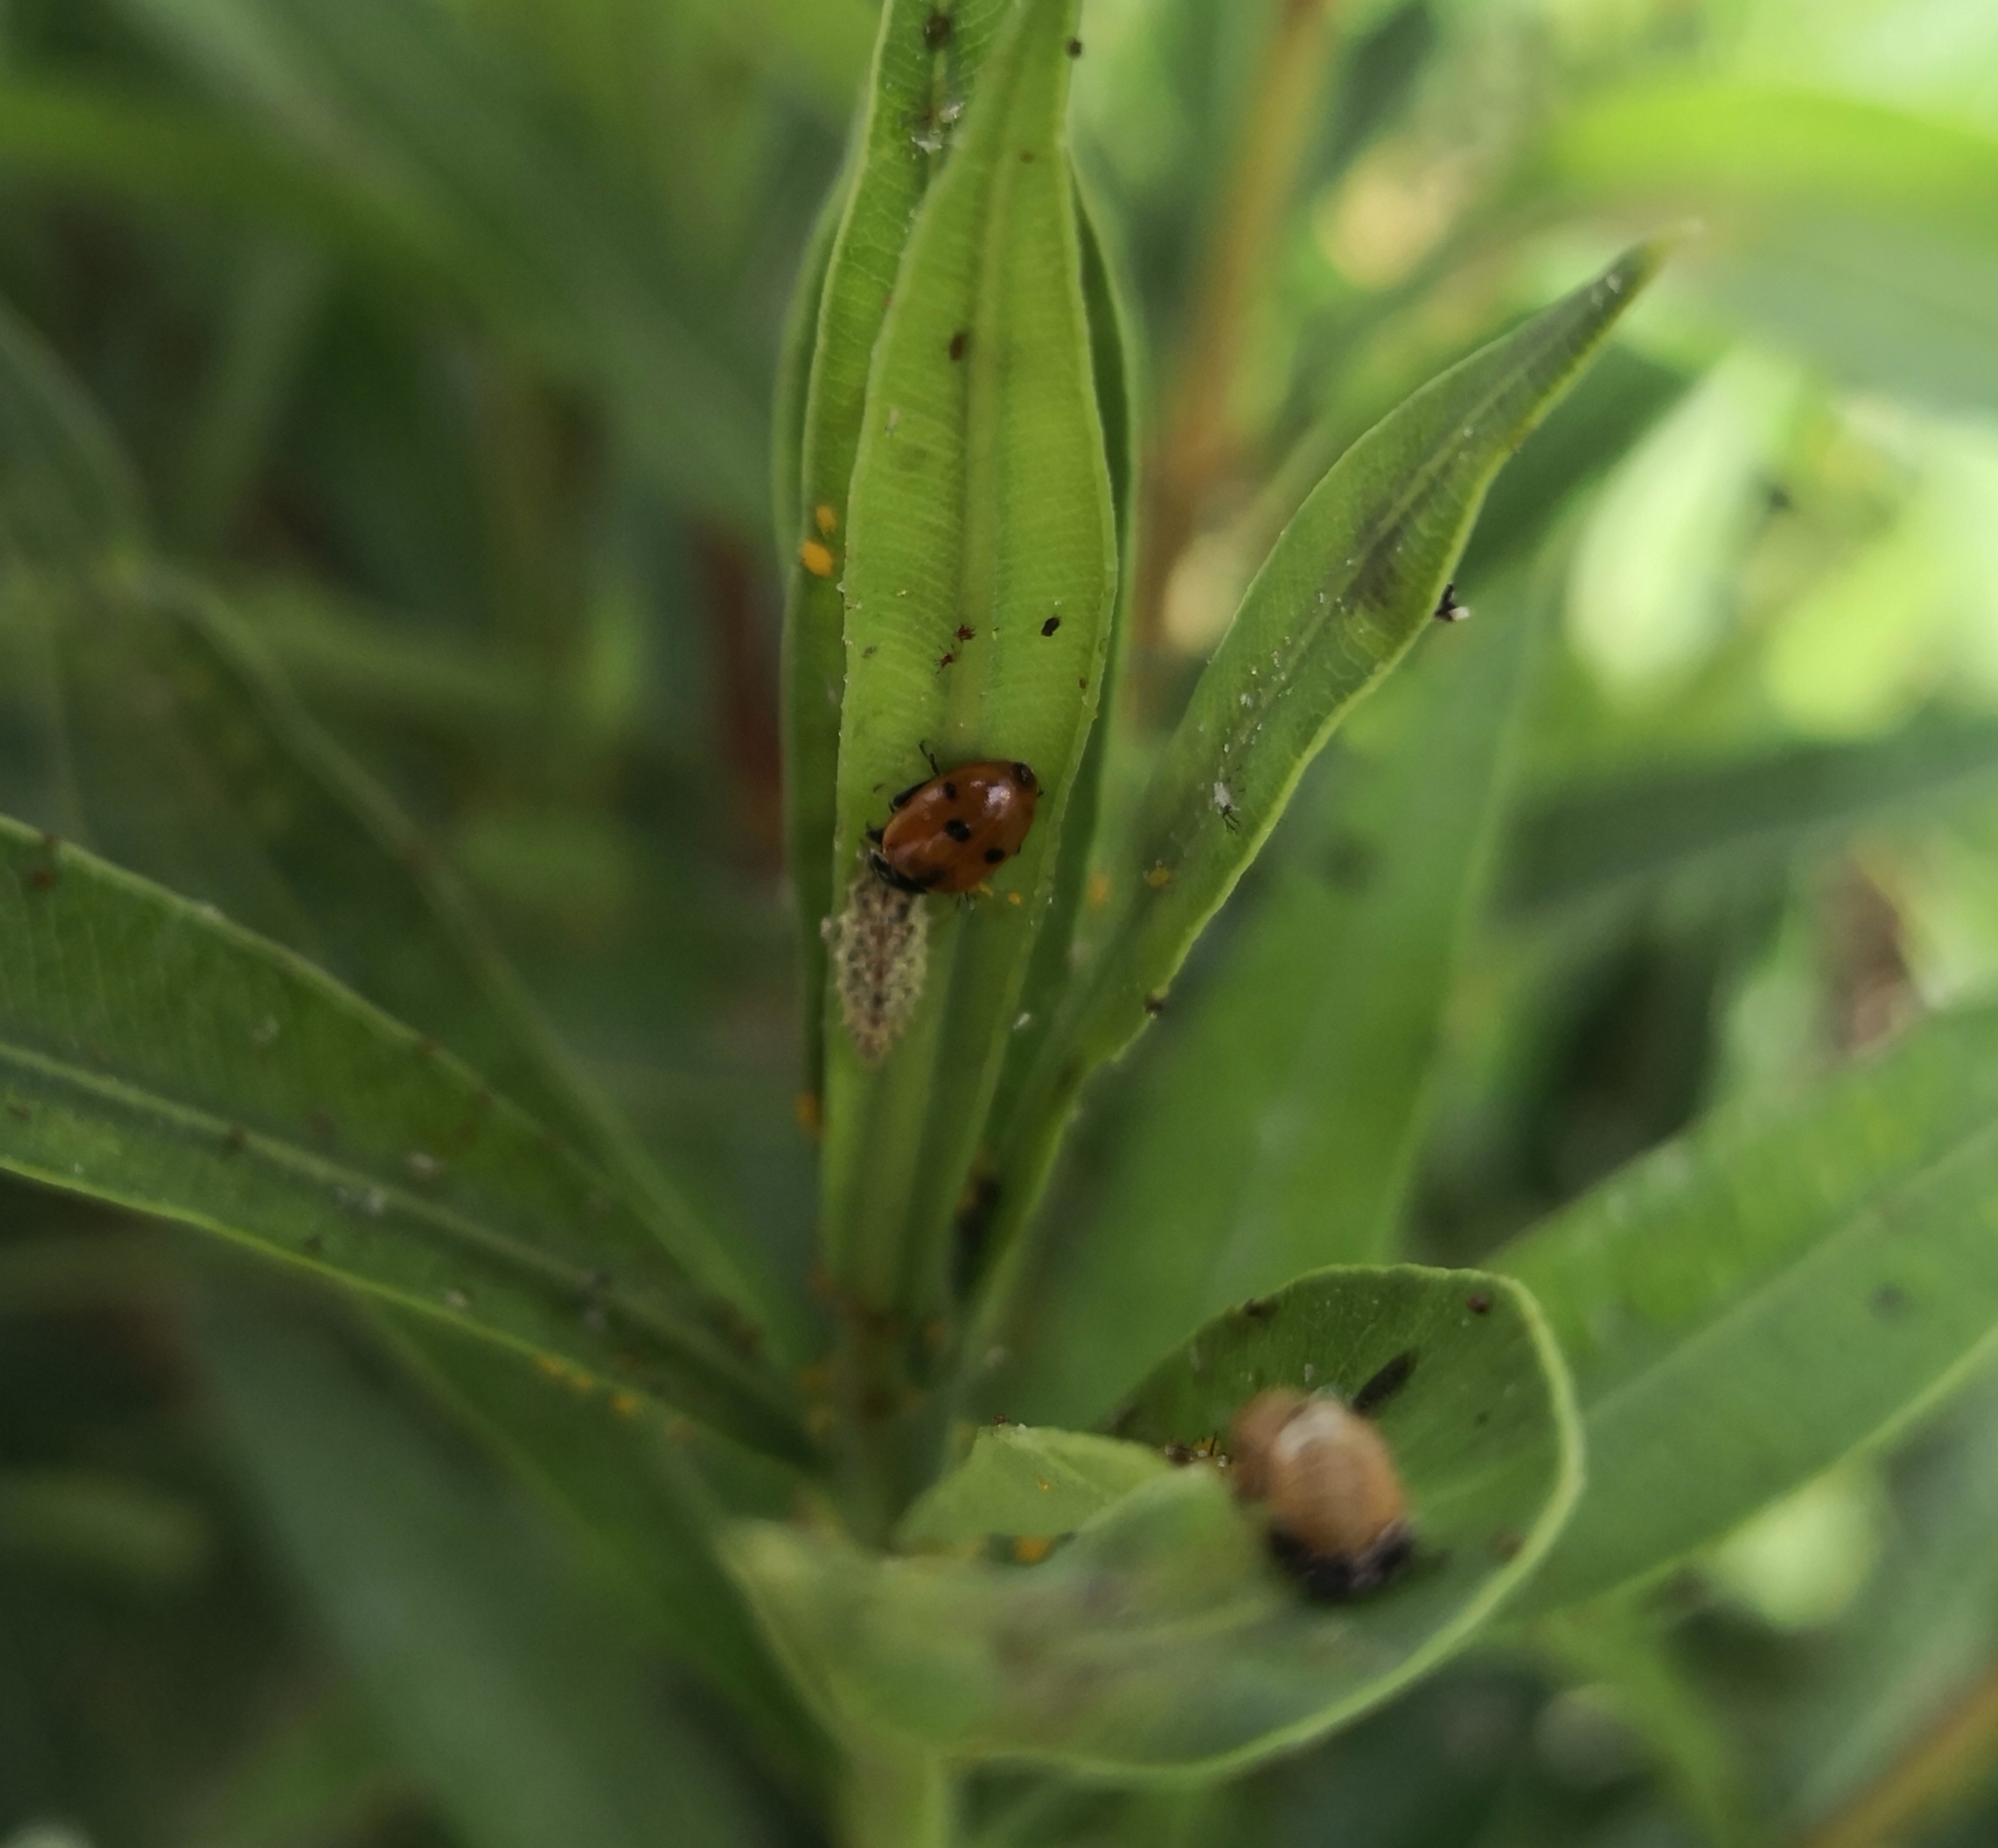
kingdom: Animalia
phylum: Arthropoda
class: Insecta
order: Coleoptera
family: Coccinellidae
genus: Hippodamia
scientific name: Hippodamia variegata
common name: Ladybird beetle
